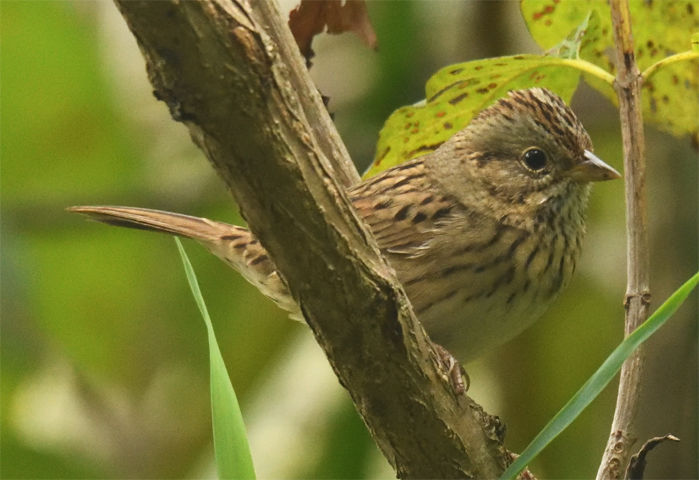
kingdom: Animalia
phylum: Chordata
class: Aves
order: Passeriformes
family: Passerellidae
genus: Melospiza
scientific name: Melospiza lincolnii
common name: Lincoln's sparrow
